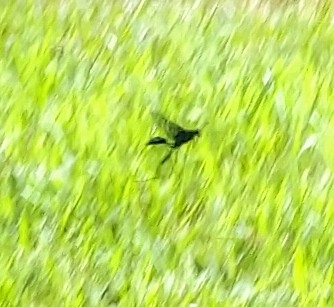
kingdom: Animalia
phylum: Arthropoda
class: Insecta
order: Hymenoptera
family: Sphecidae
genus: Sphex
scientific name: Sphex pensylvanicus
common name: Great black digger wasp
